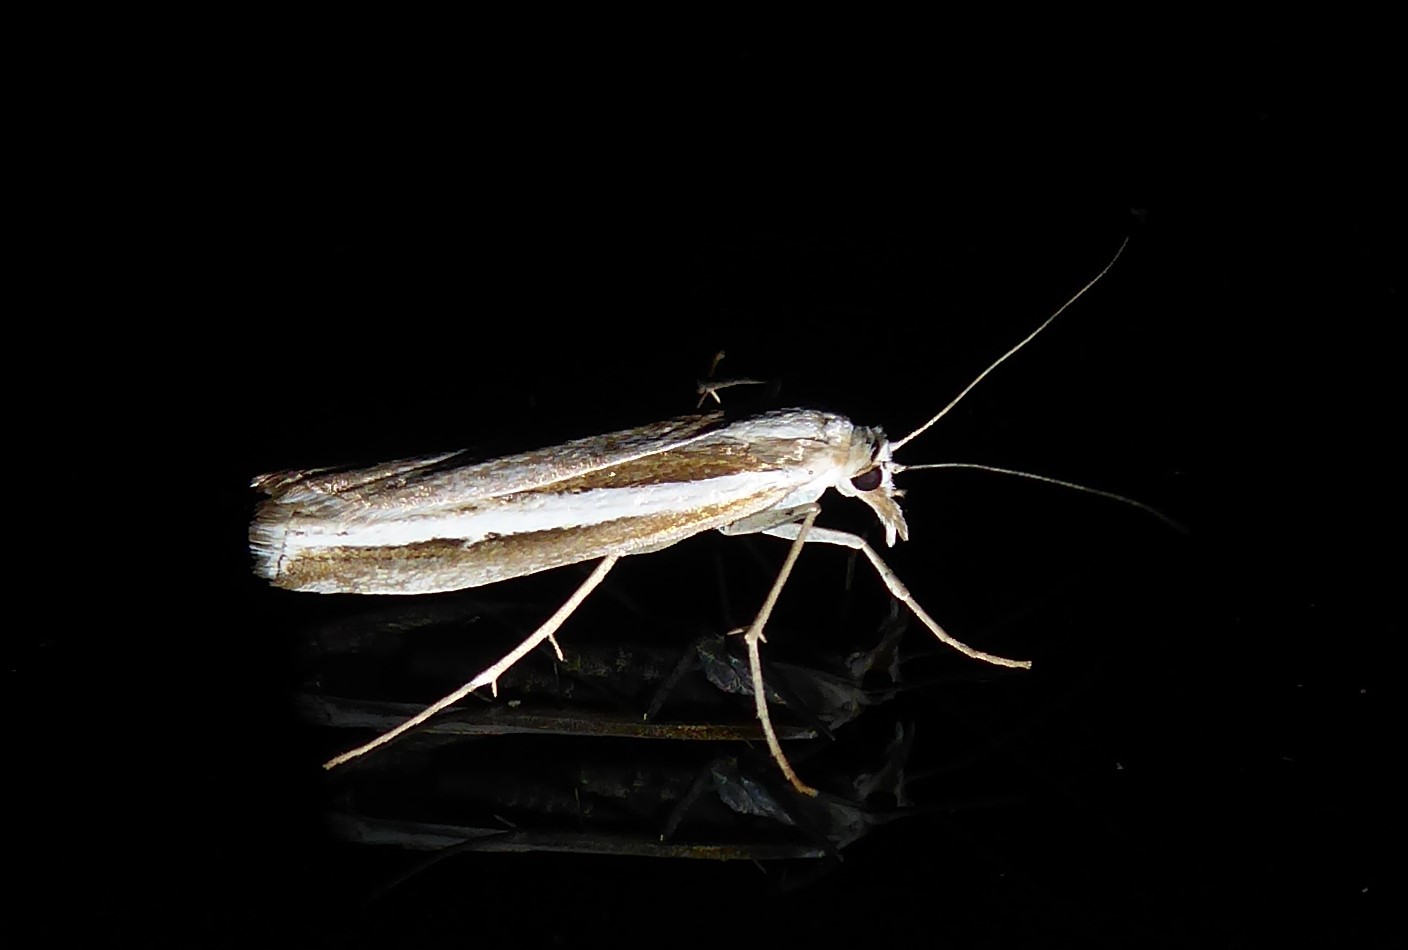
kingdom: Animalia
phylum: Arthropoda
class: Insecta
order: Lepidoptera
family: Crambidae
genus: Orocrambus
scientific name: Orocrambus vittellus
